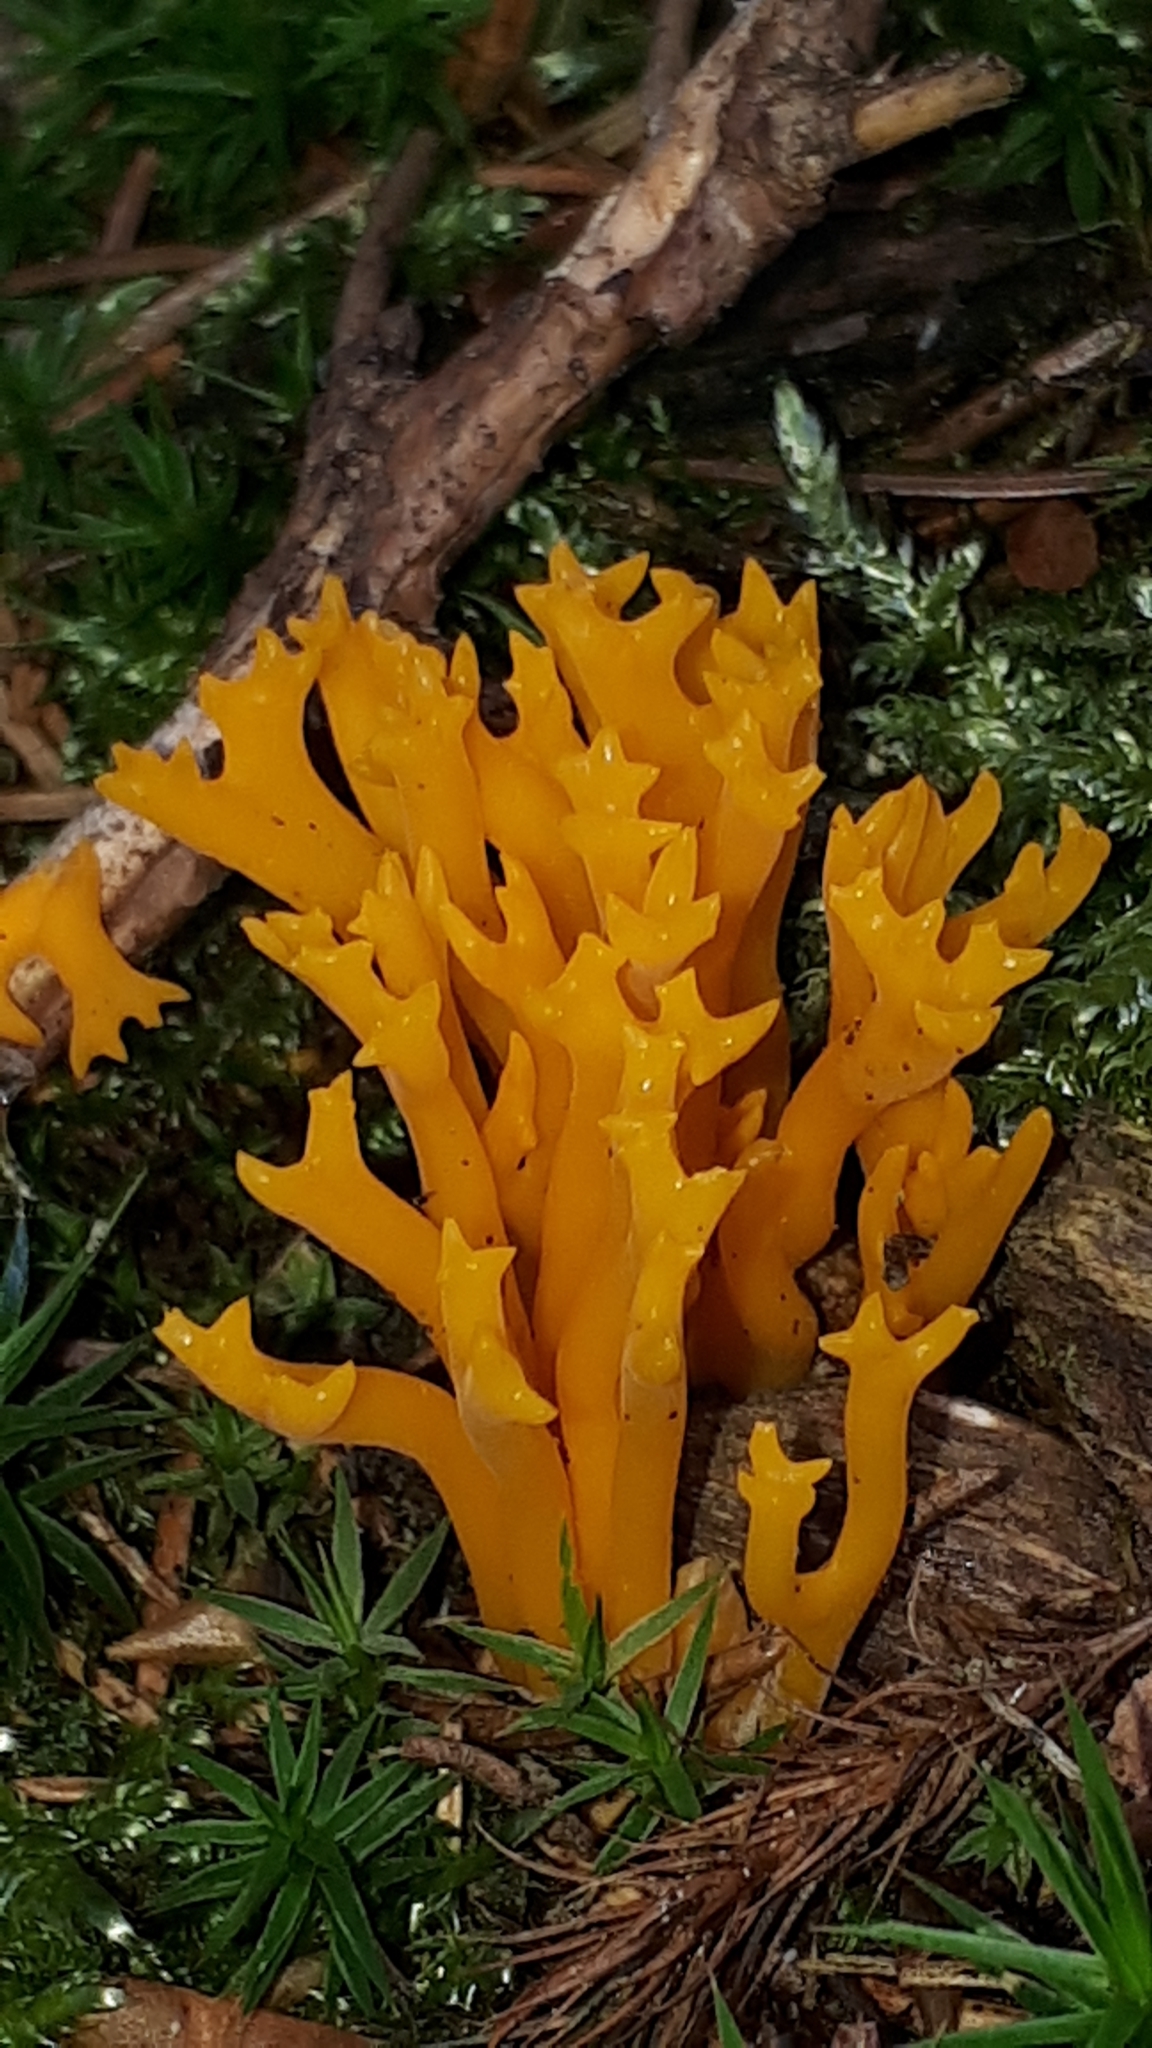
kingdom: Fungi
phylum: Basidiomycota
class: Dacrymycetes
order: Dacrymycetales
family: Dacrymycetaceae
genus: Calocera
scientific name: Calocera viscosa
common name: Yellow stagshorn
